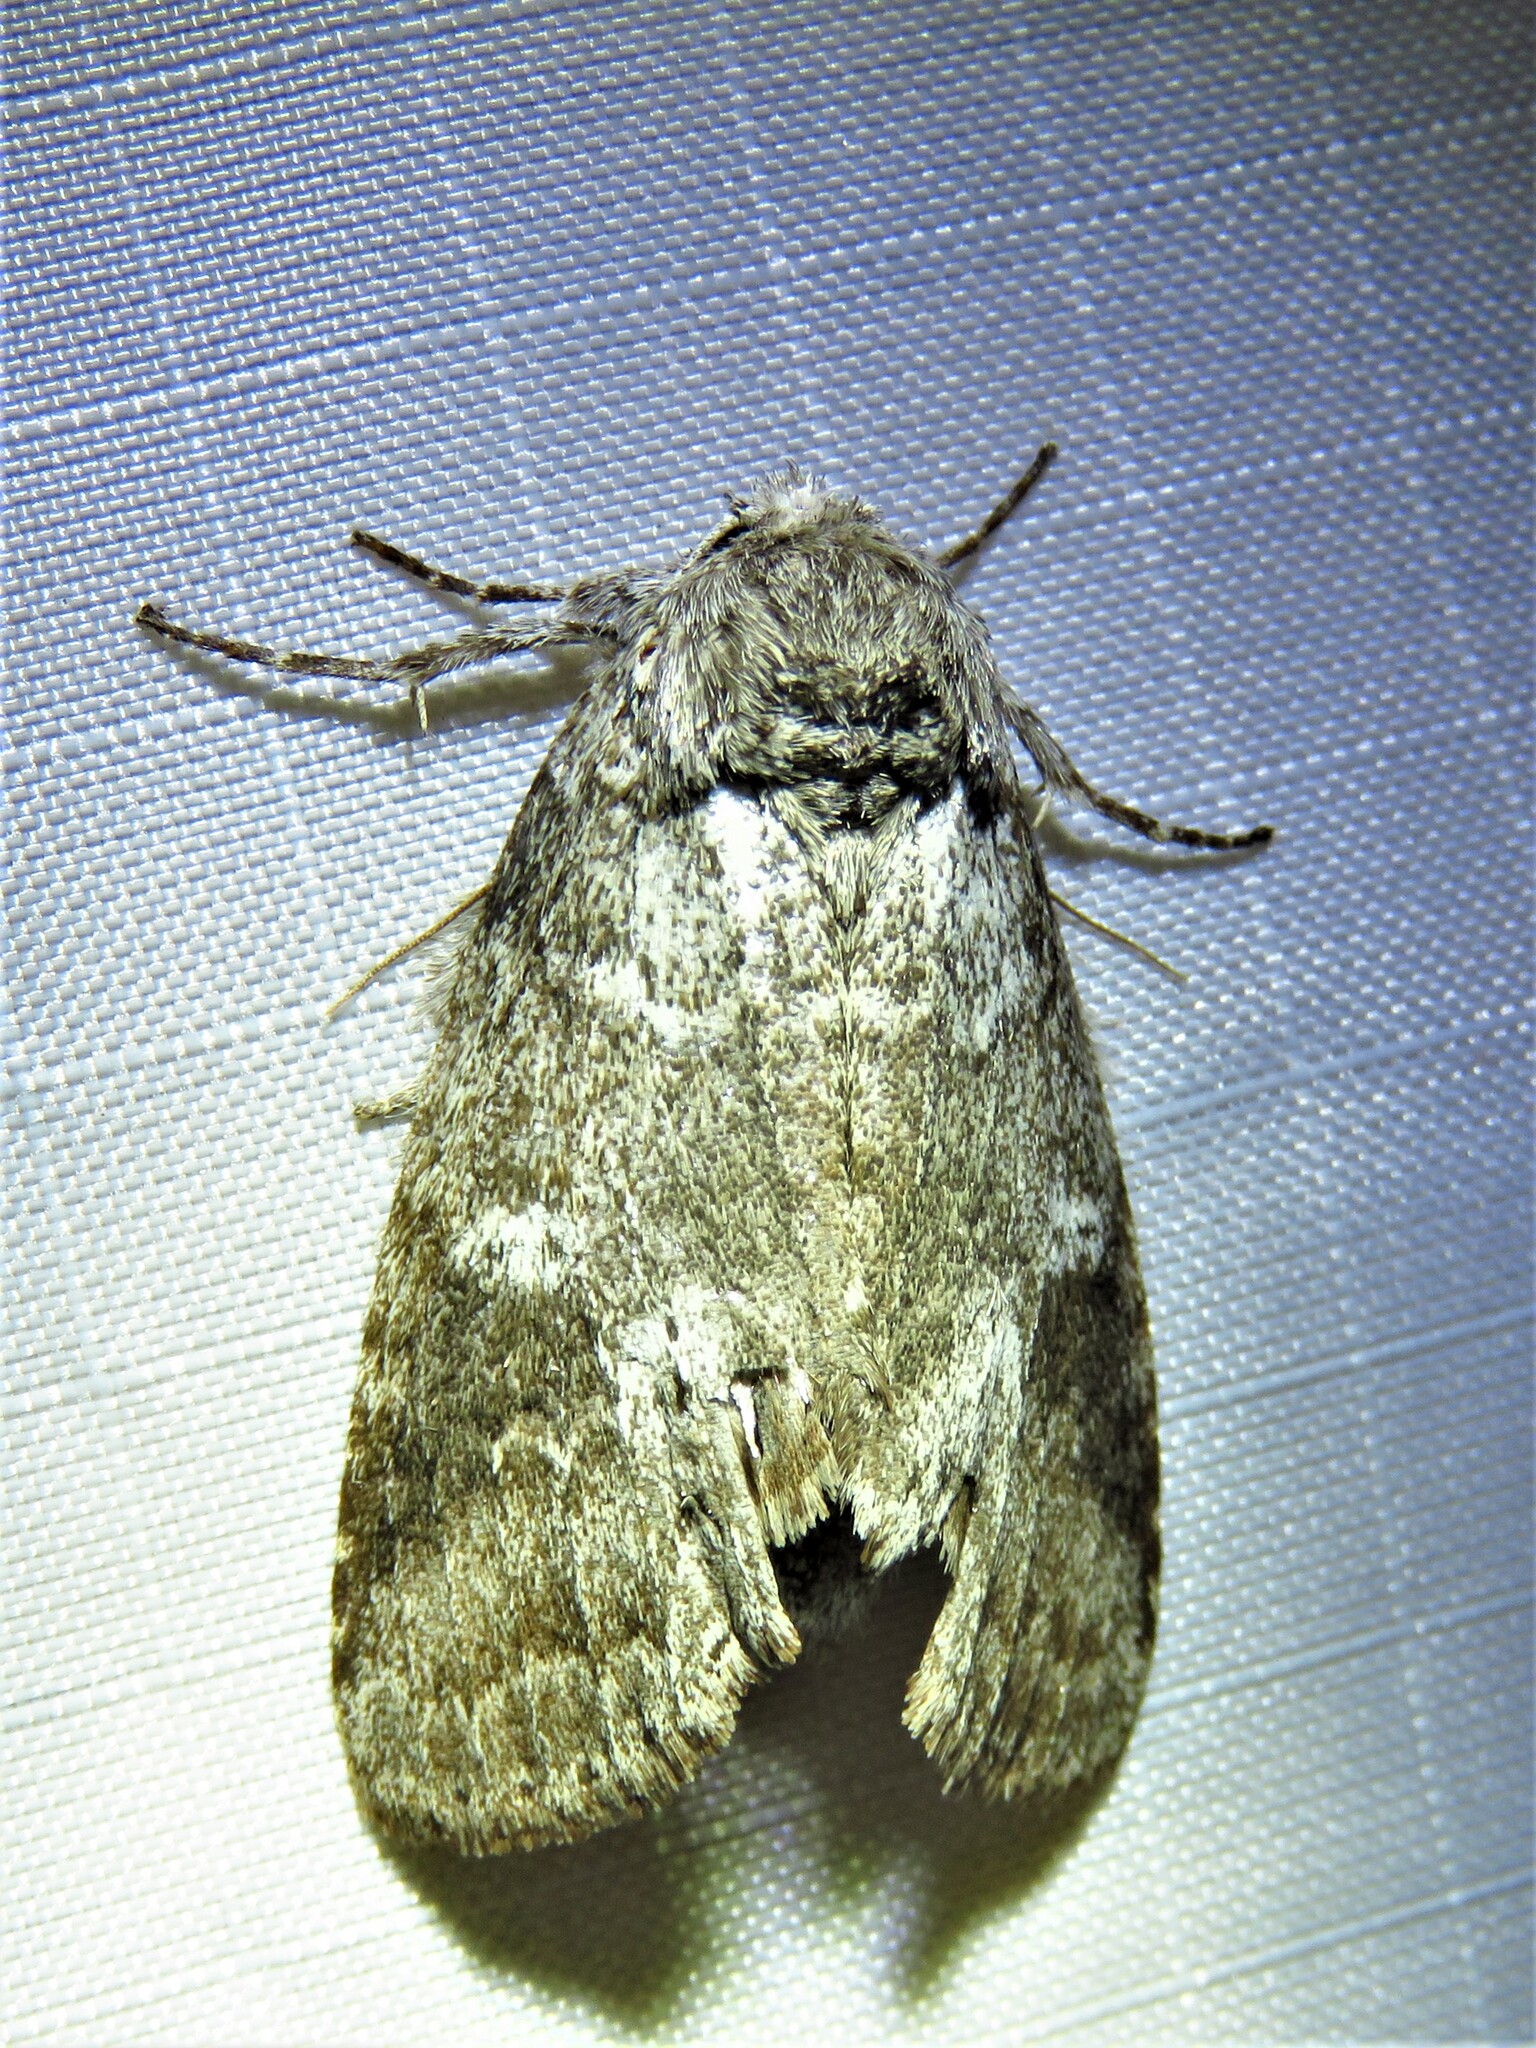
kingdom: Animalia
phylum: Arthropoda
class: Insecta
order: Lepidoptera
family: Notodontidae
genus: Lochmaeus
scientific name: Lochmaeus manteo
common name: Variable oakleaf caterpillar moth
